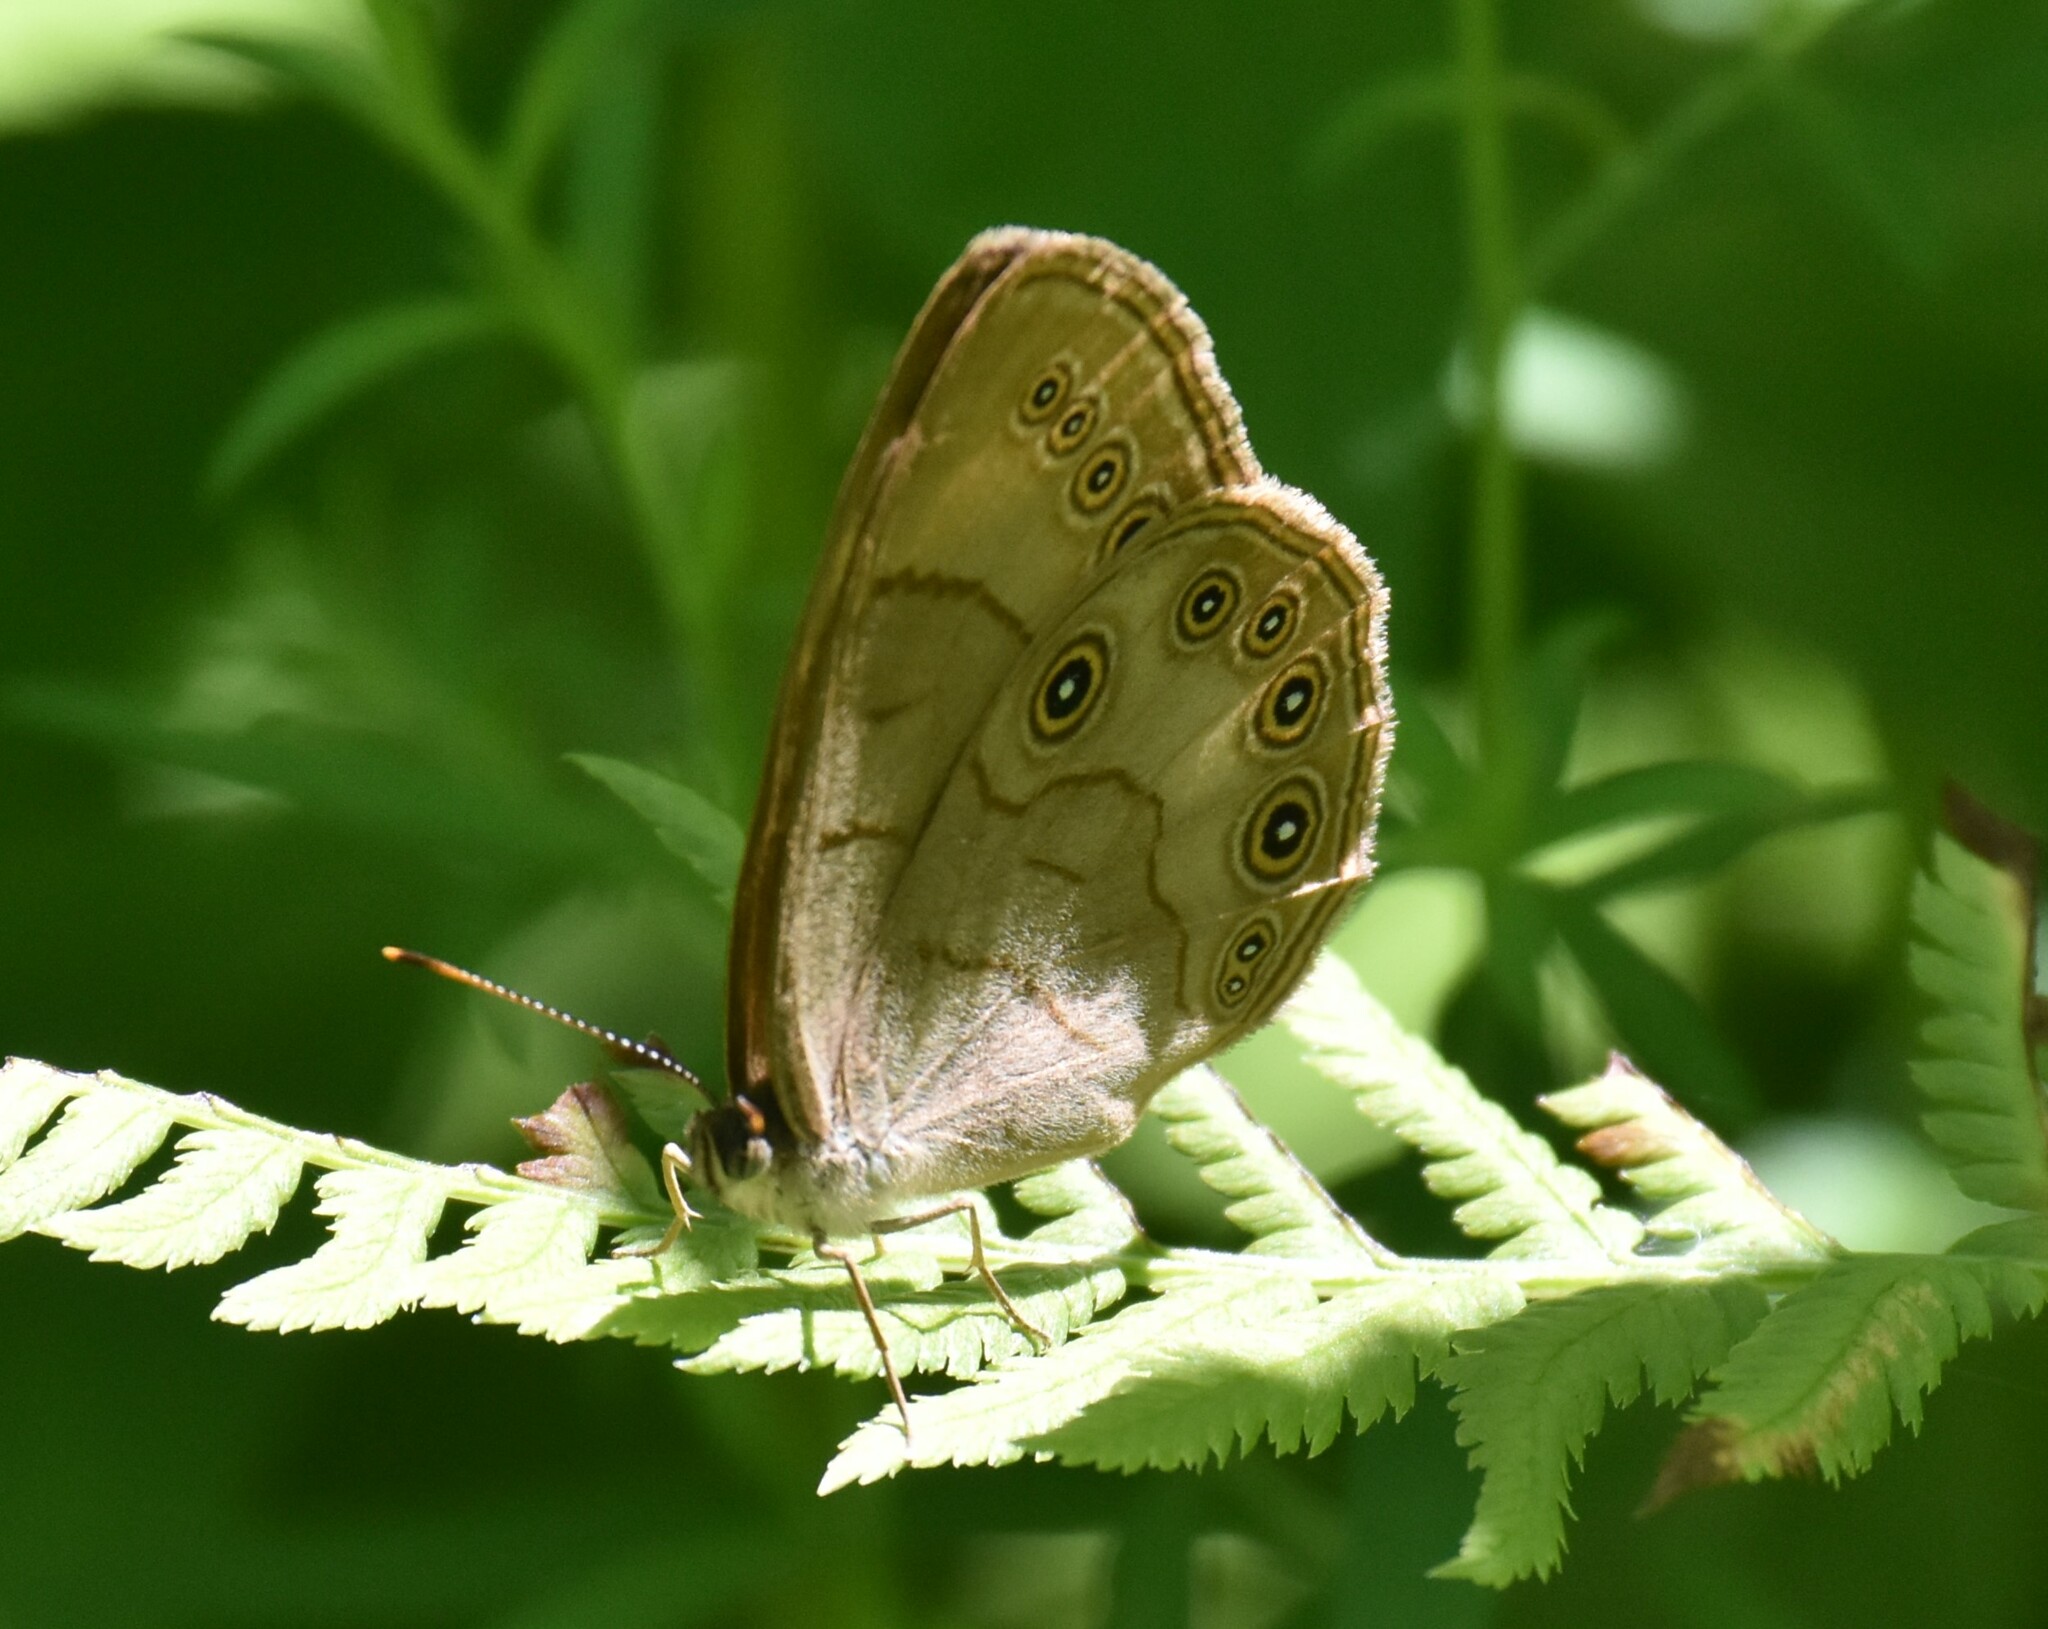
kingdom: Animalia
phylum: Arthropoda
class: Insecta
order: Lepidoptera
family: Nymphalidae
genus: Lethe
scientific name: Lethe eurydice
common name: Eyed brown
